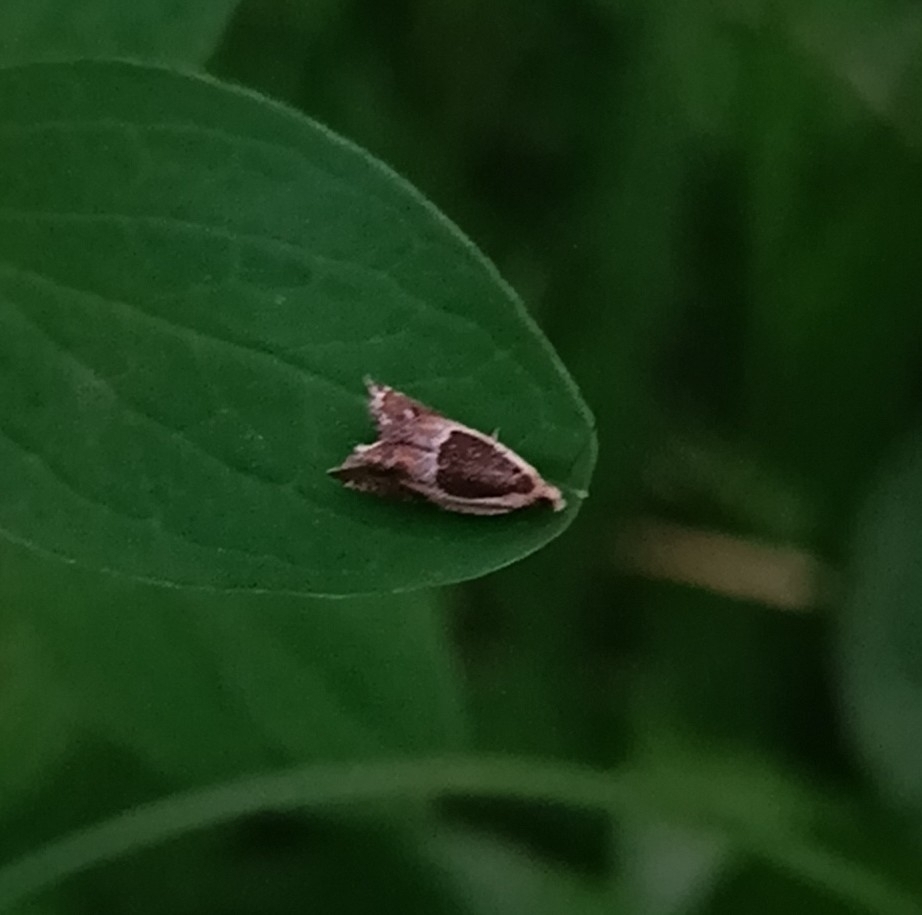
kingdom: Animalia
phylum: Arthropoda
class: Insecta
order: Lepidoptera
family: Tortricidae
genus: Ancylis
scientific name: Ancylis badiana
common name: Common roller
